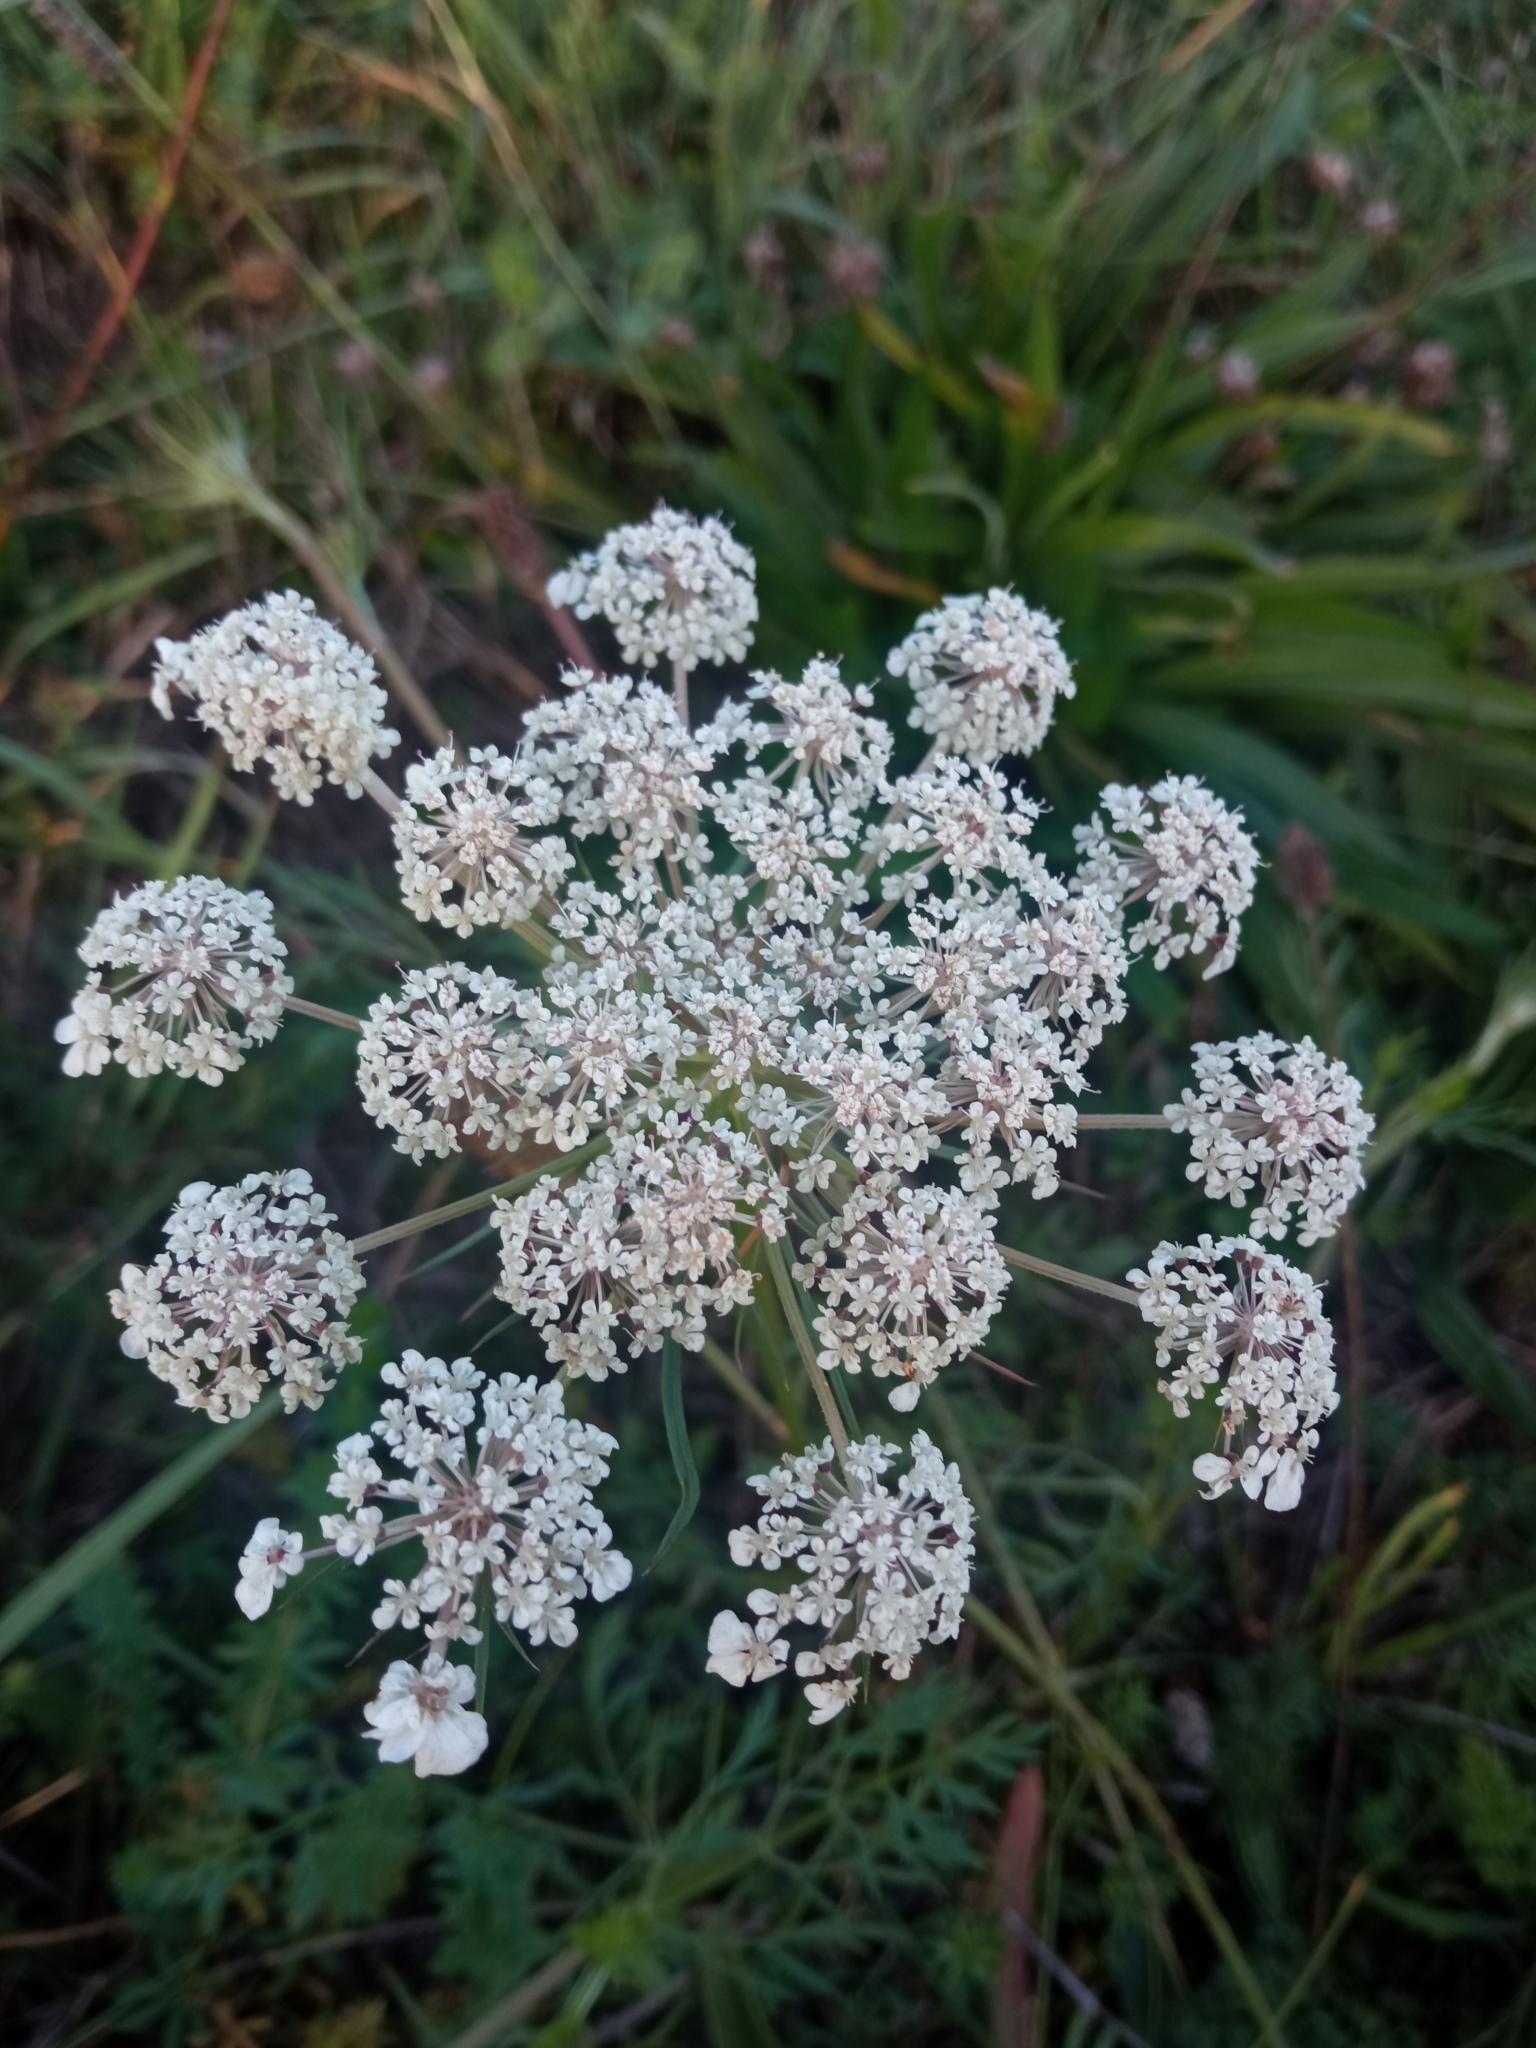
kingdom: Plantae
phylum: Tracheophyta
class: Magnoliopsida
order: Apiales
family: Apiaceae
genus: Daucus
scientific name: Daucus carota
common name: Wild carrot
